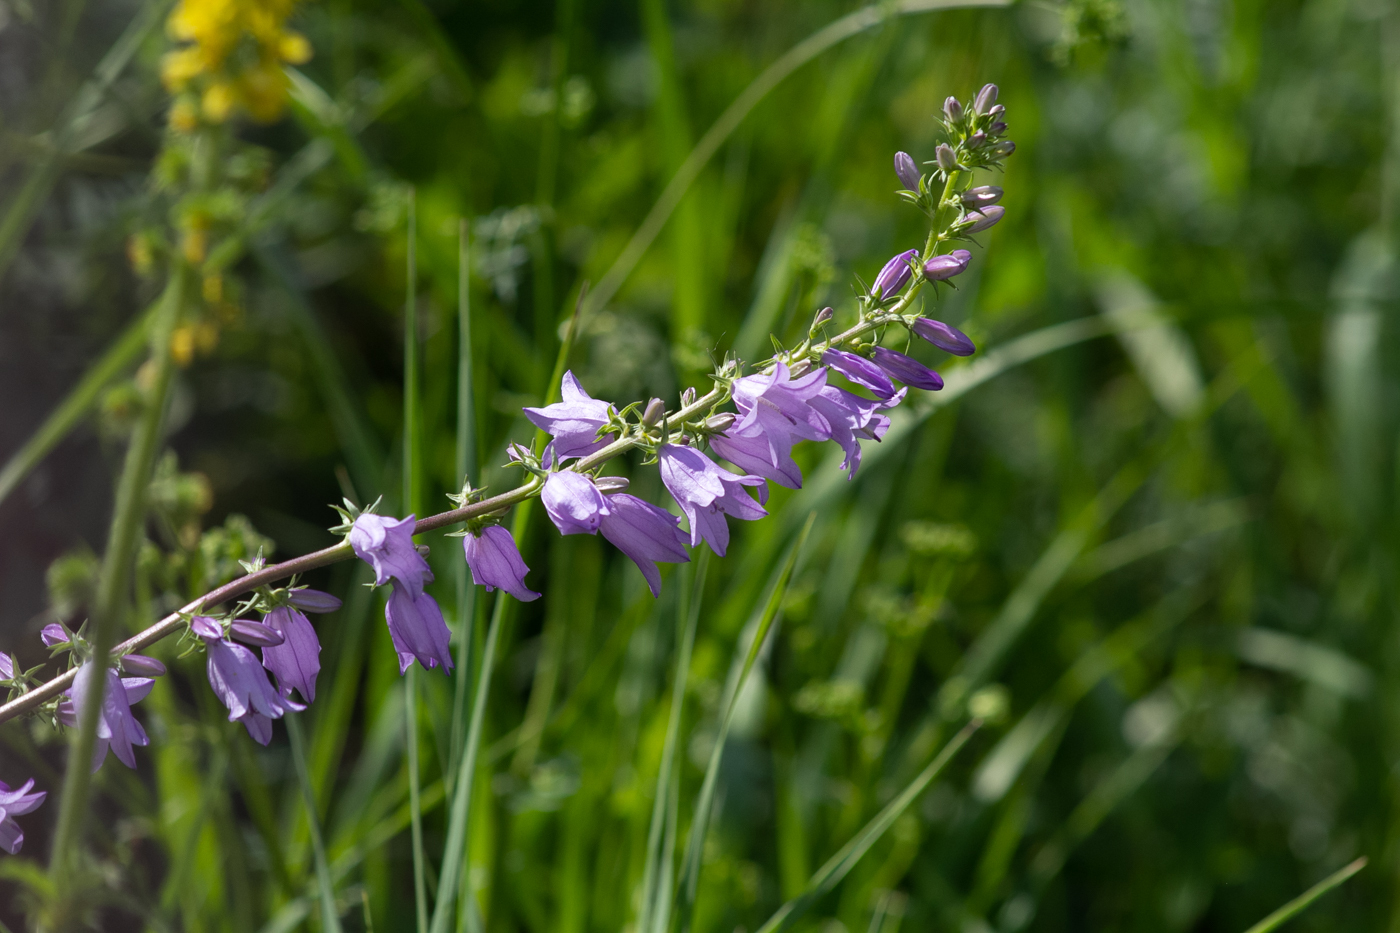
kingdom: Plantae
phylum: Tracheophyta
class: Magnoliopsida
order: Asterales
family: Campanulaceae
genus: Campanula
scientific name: Campanula bononiensis
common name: Pale bellflower
